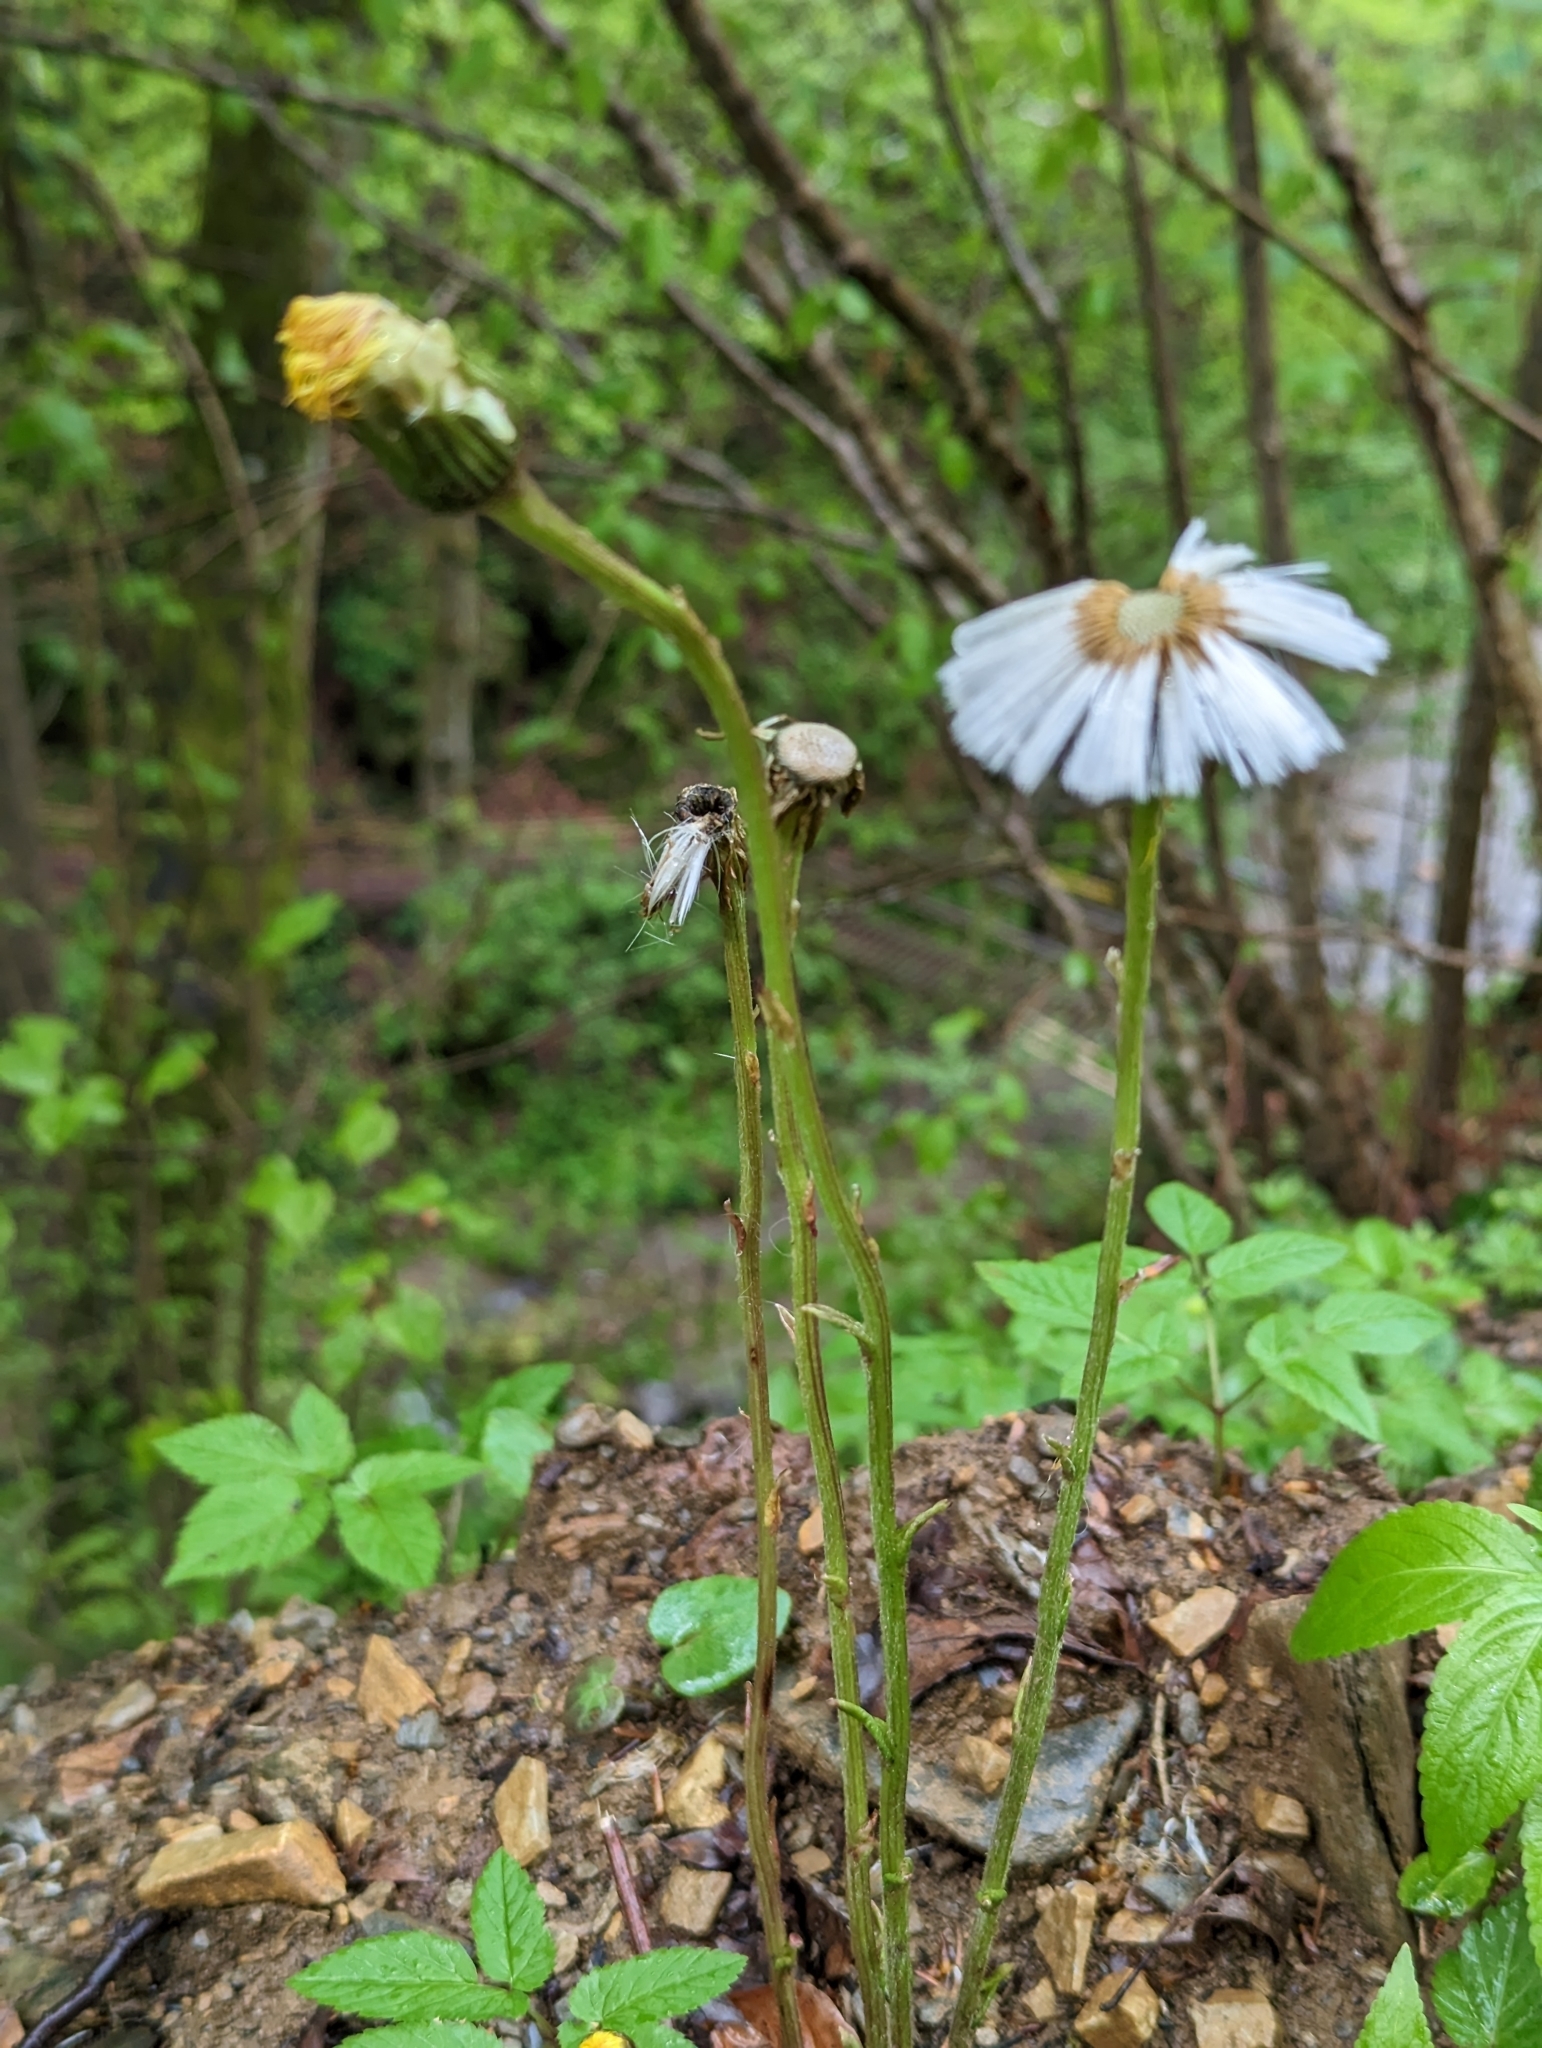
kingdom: Plantae
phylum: Tracheophyta
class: Magnoliopsida
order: Asterales
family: Asteraceae
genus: Tussilago
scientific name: Tussilago farfara
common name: Coltsfoot
